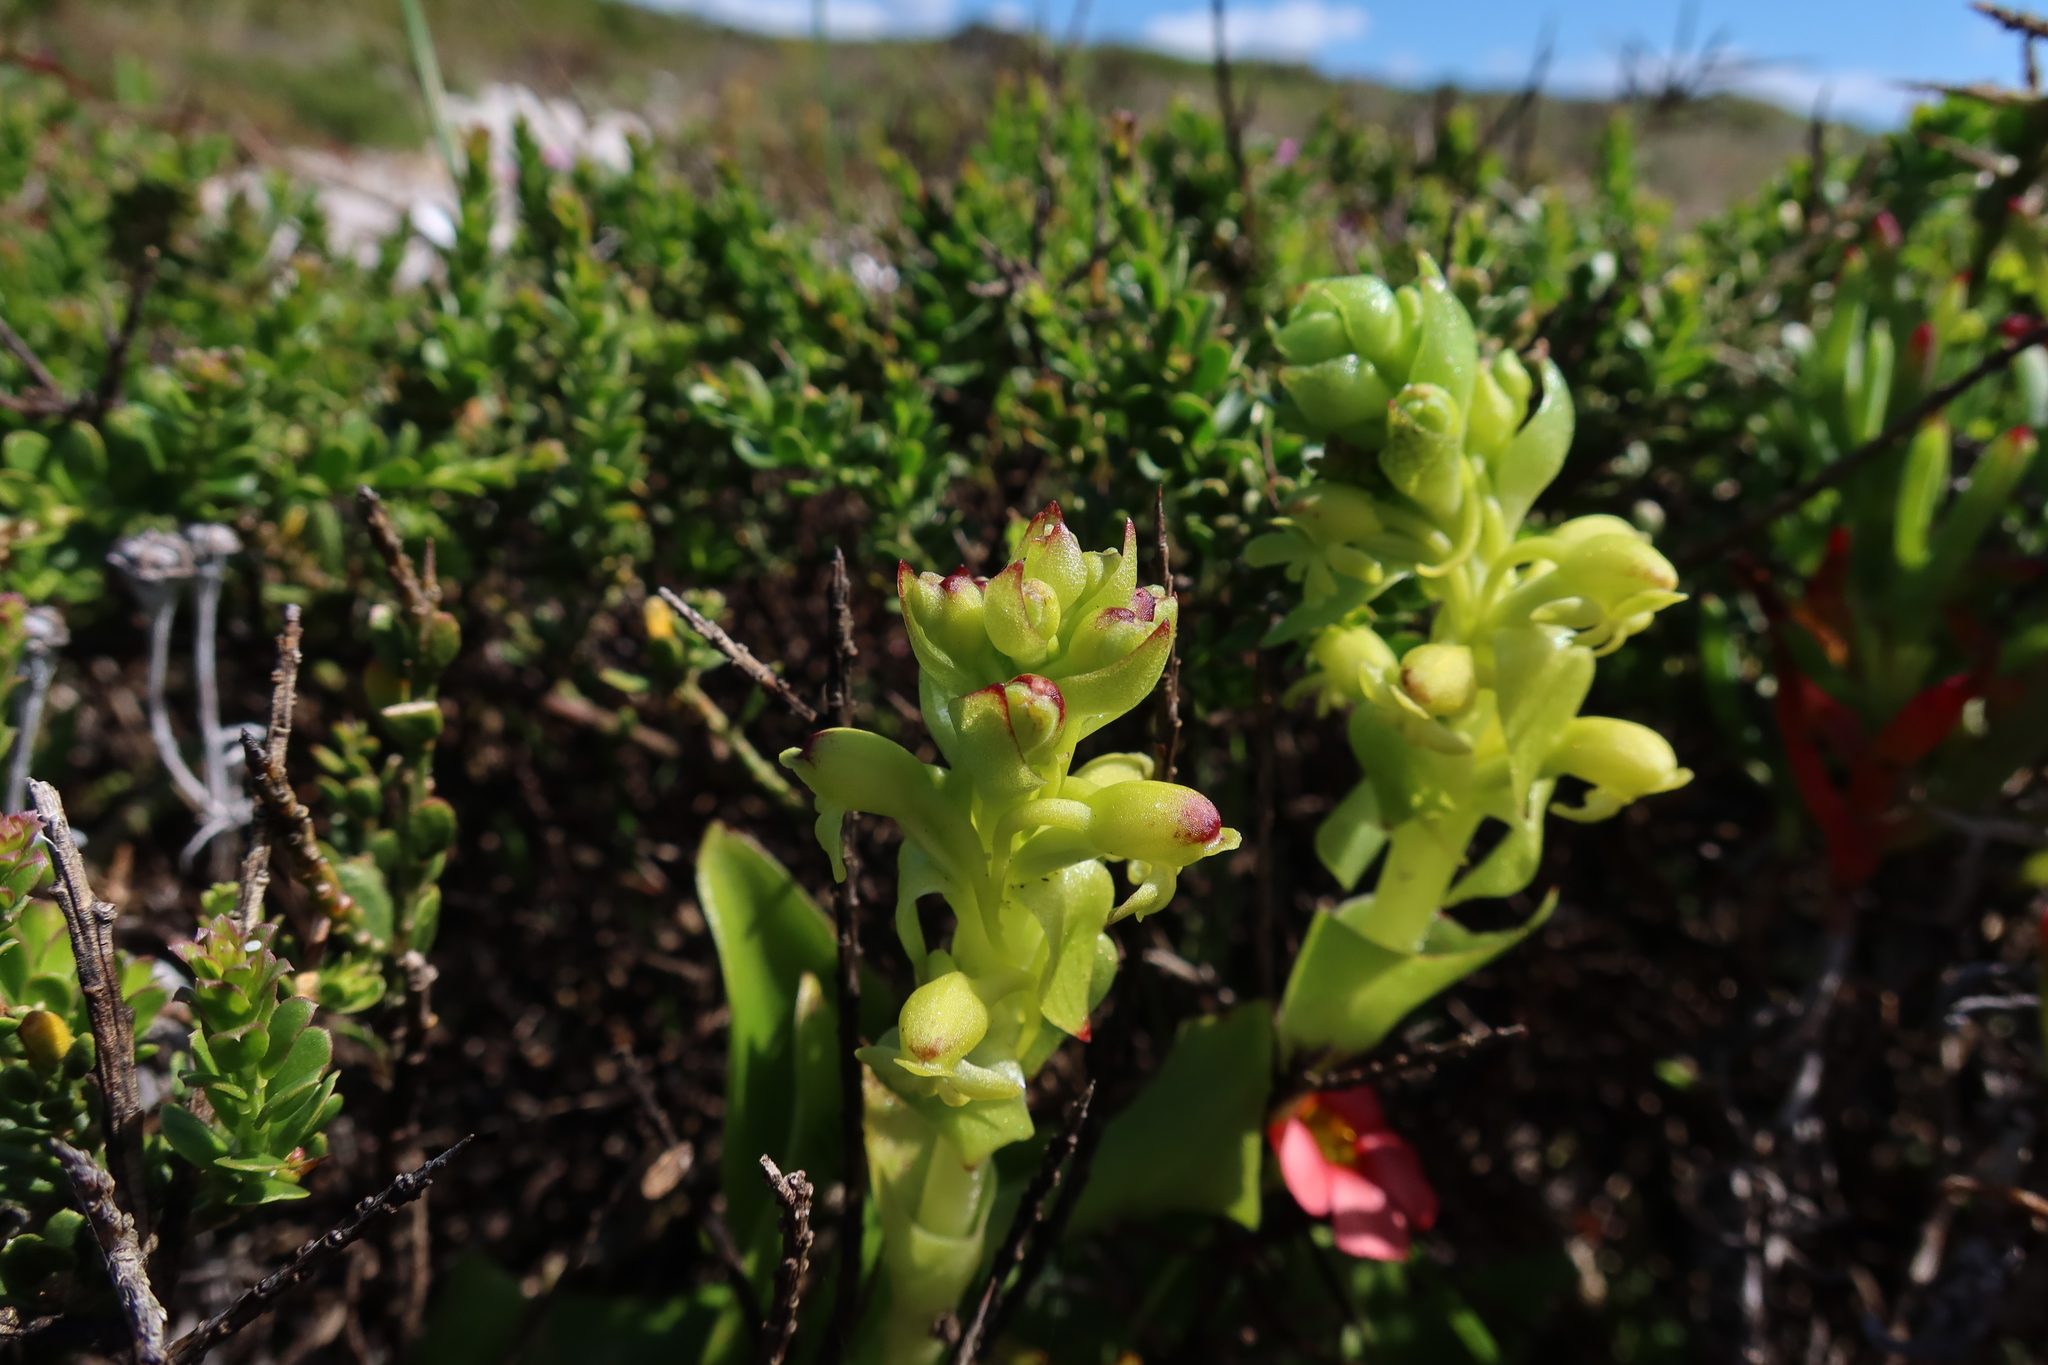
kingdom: Plantae
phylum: Tracheophyta
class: Liliopsida
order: Asparagales
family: Orchidaceae
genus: Satyrium
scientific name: Satyrium odorum
